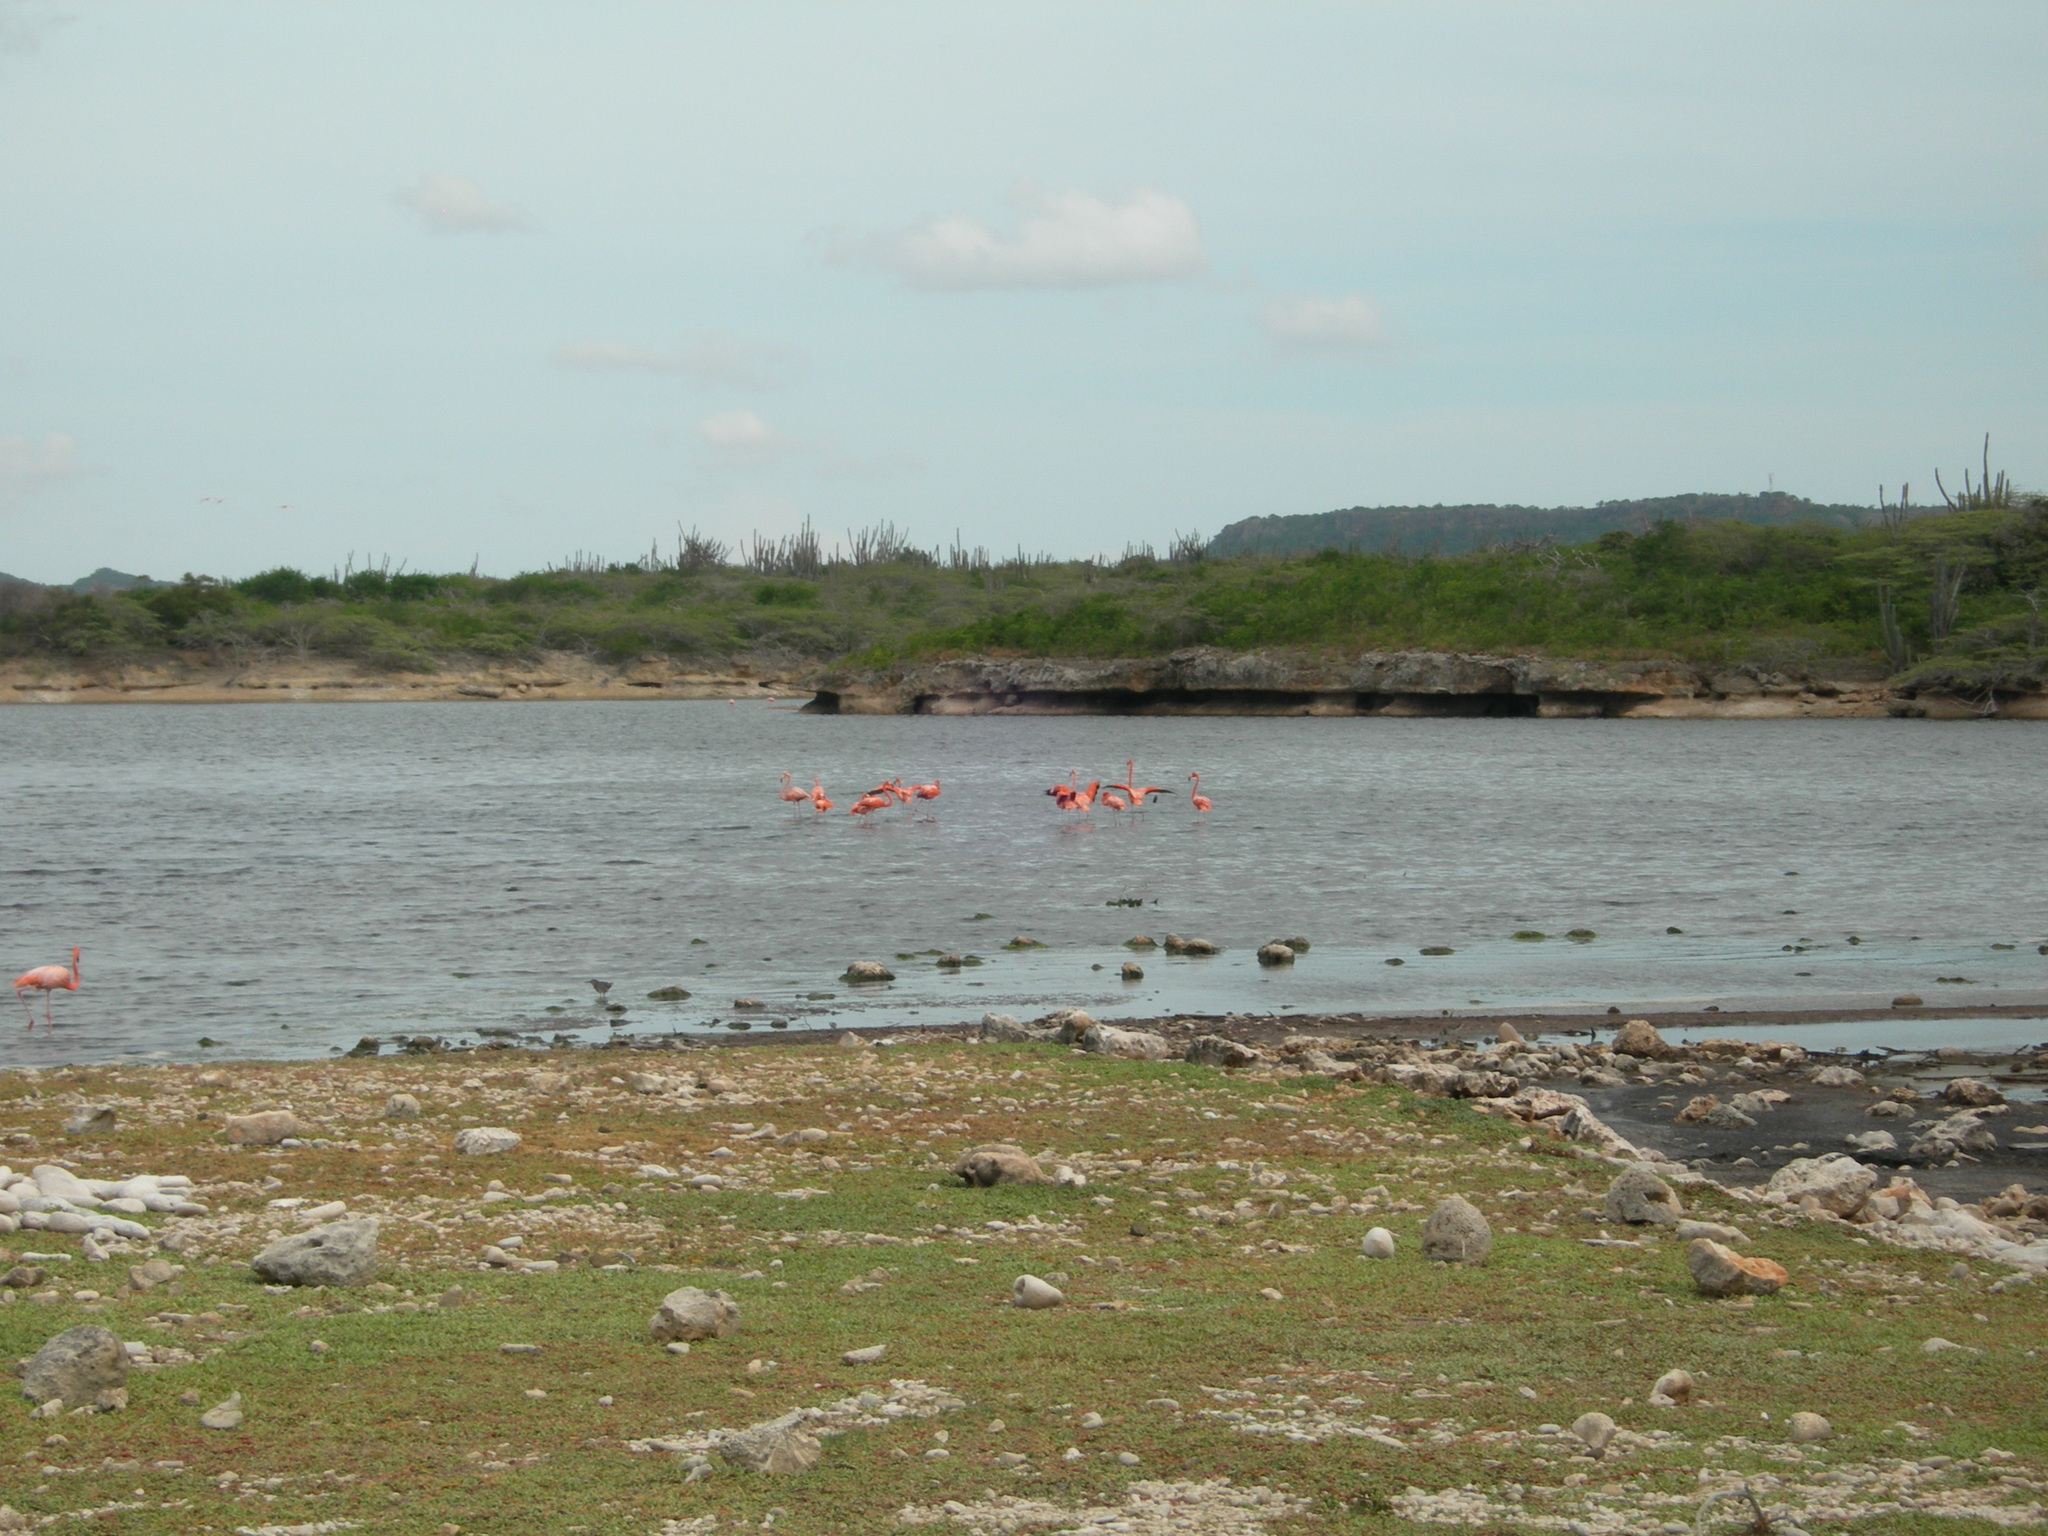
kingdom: Animalia
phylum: Chordata
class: Aves
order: Phoenicopteriformes
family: Phoenicopteridae
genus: Phoenicopterus
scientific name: Phoenicopterus ruber
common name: American flamingo
